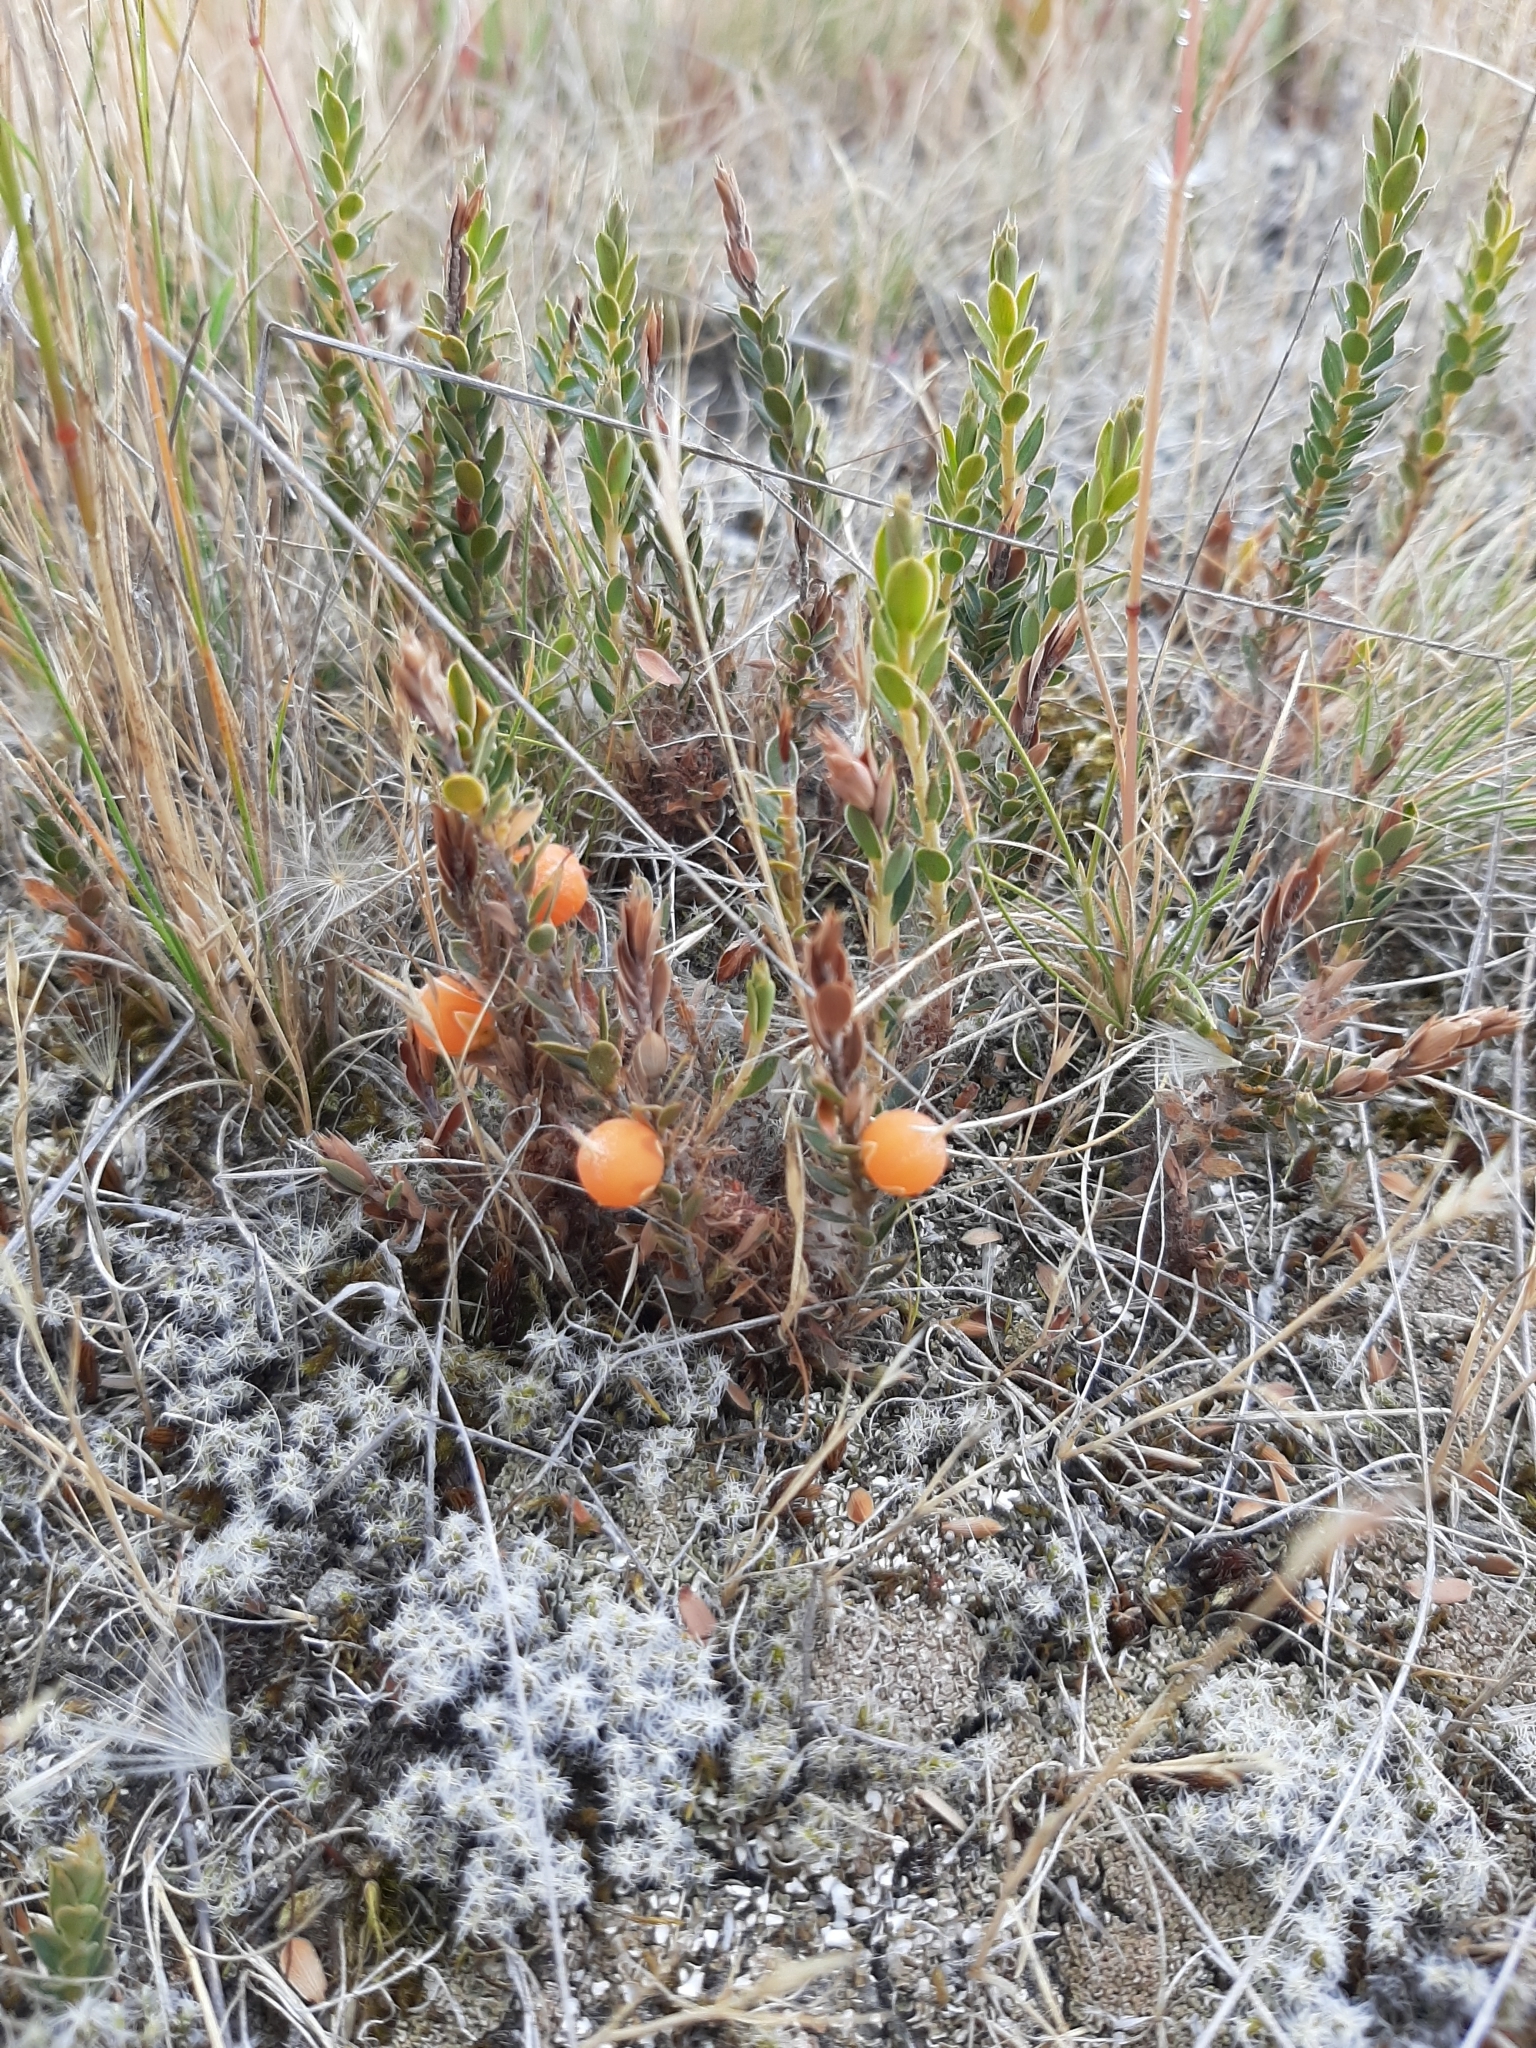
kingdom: Plantae
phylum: Tracheophyta
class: Magnoliopsida
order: Ericales
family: Ericaceae
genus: Styphelia
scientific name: Styphelia nesophila
